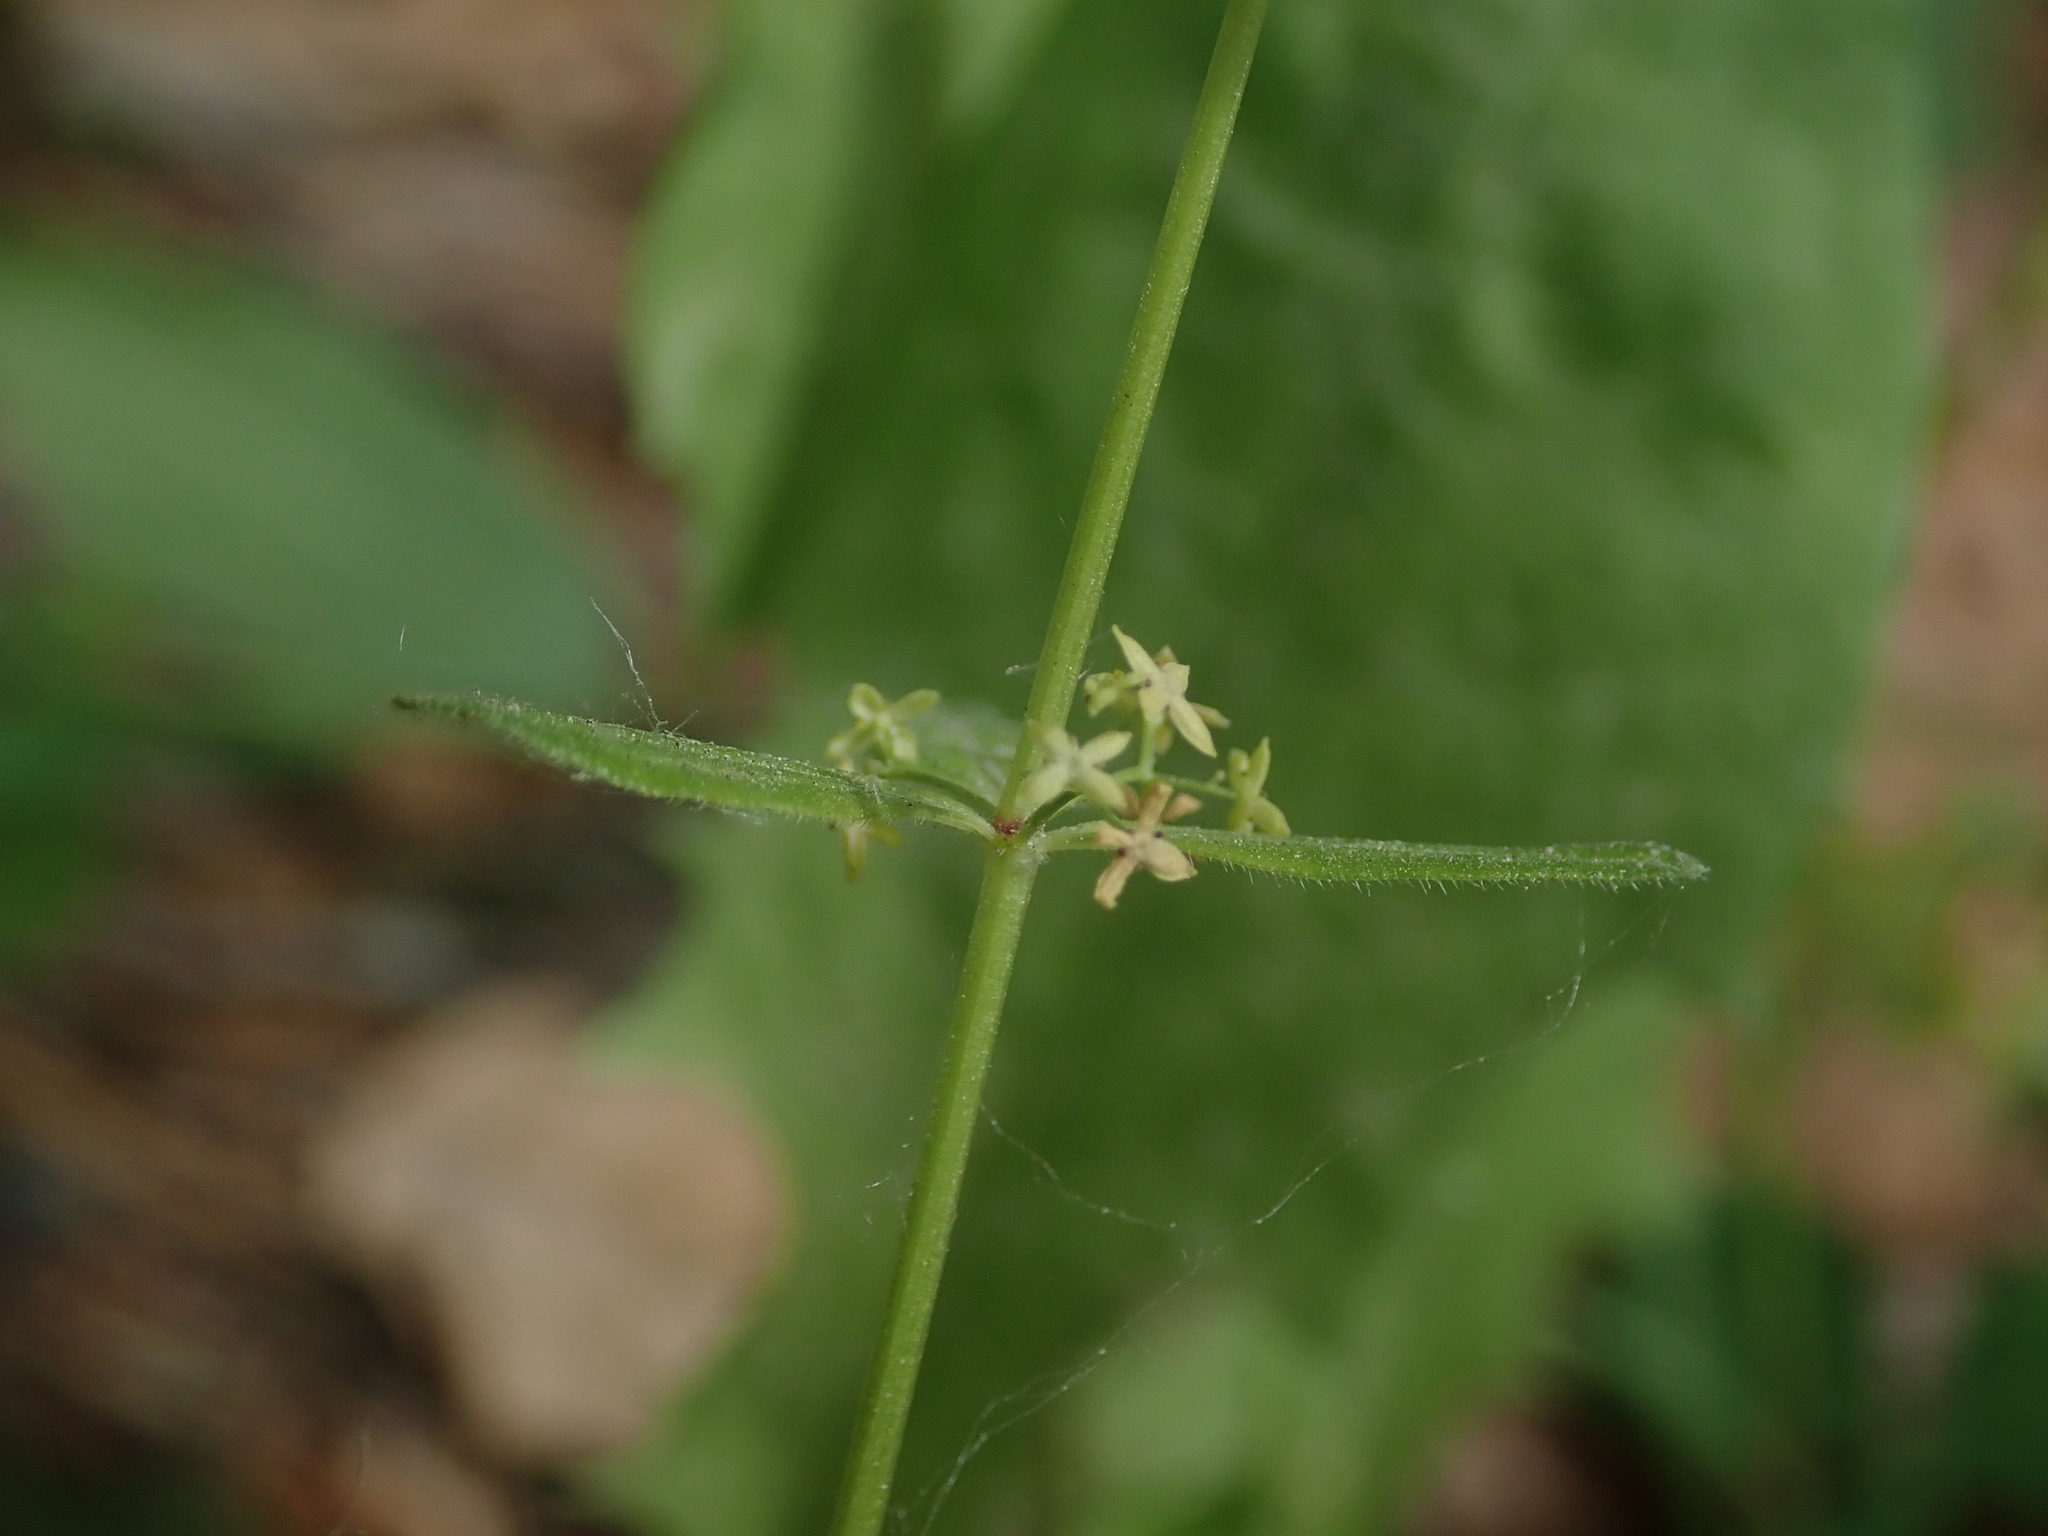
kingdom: Plantae
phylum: Tracheophyta
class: Magnoliopsida
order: Gentianales
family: Rubiaceae
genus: Cruciata
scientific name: Cruciata glabra
